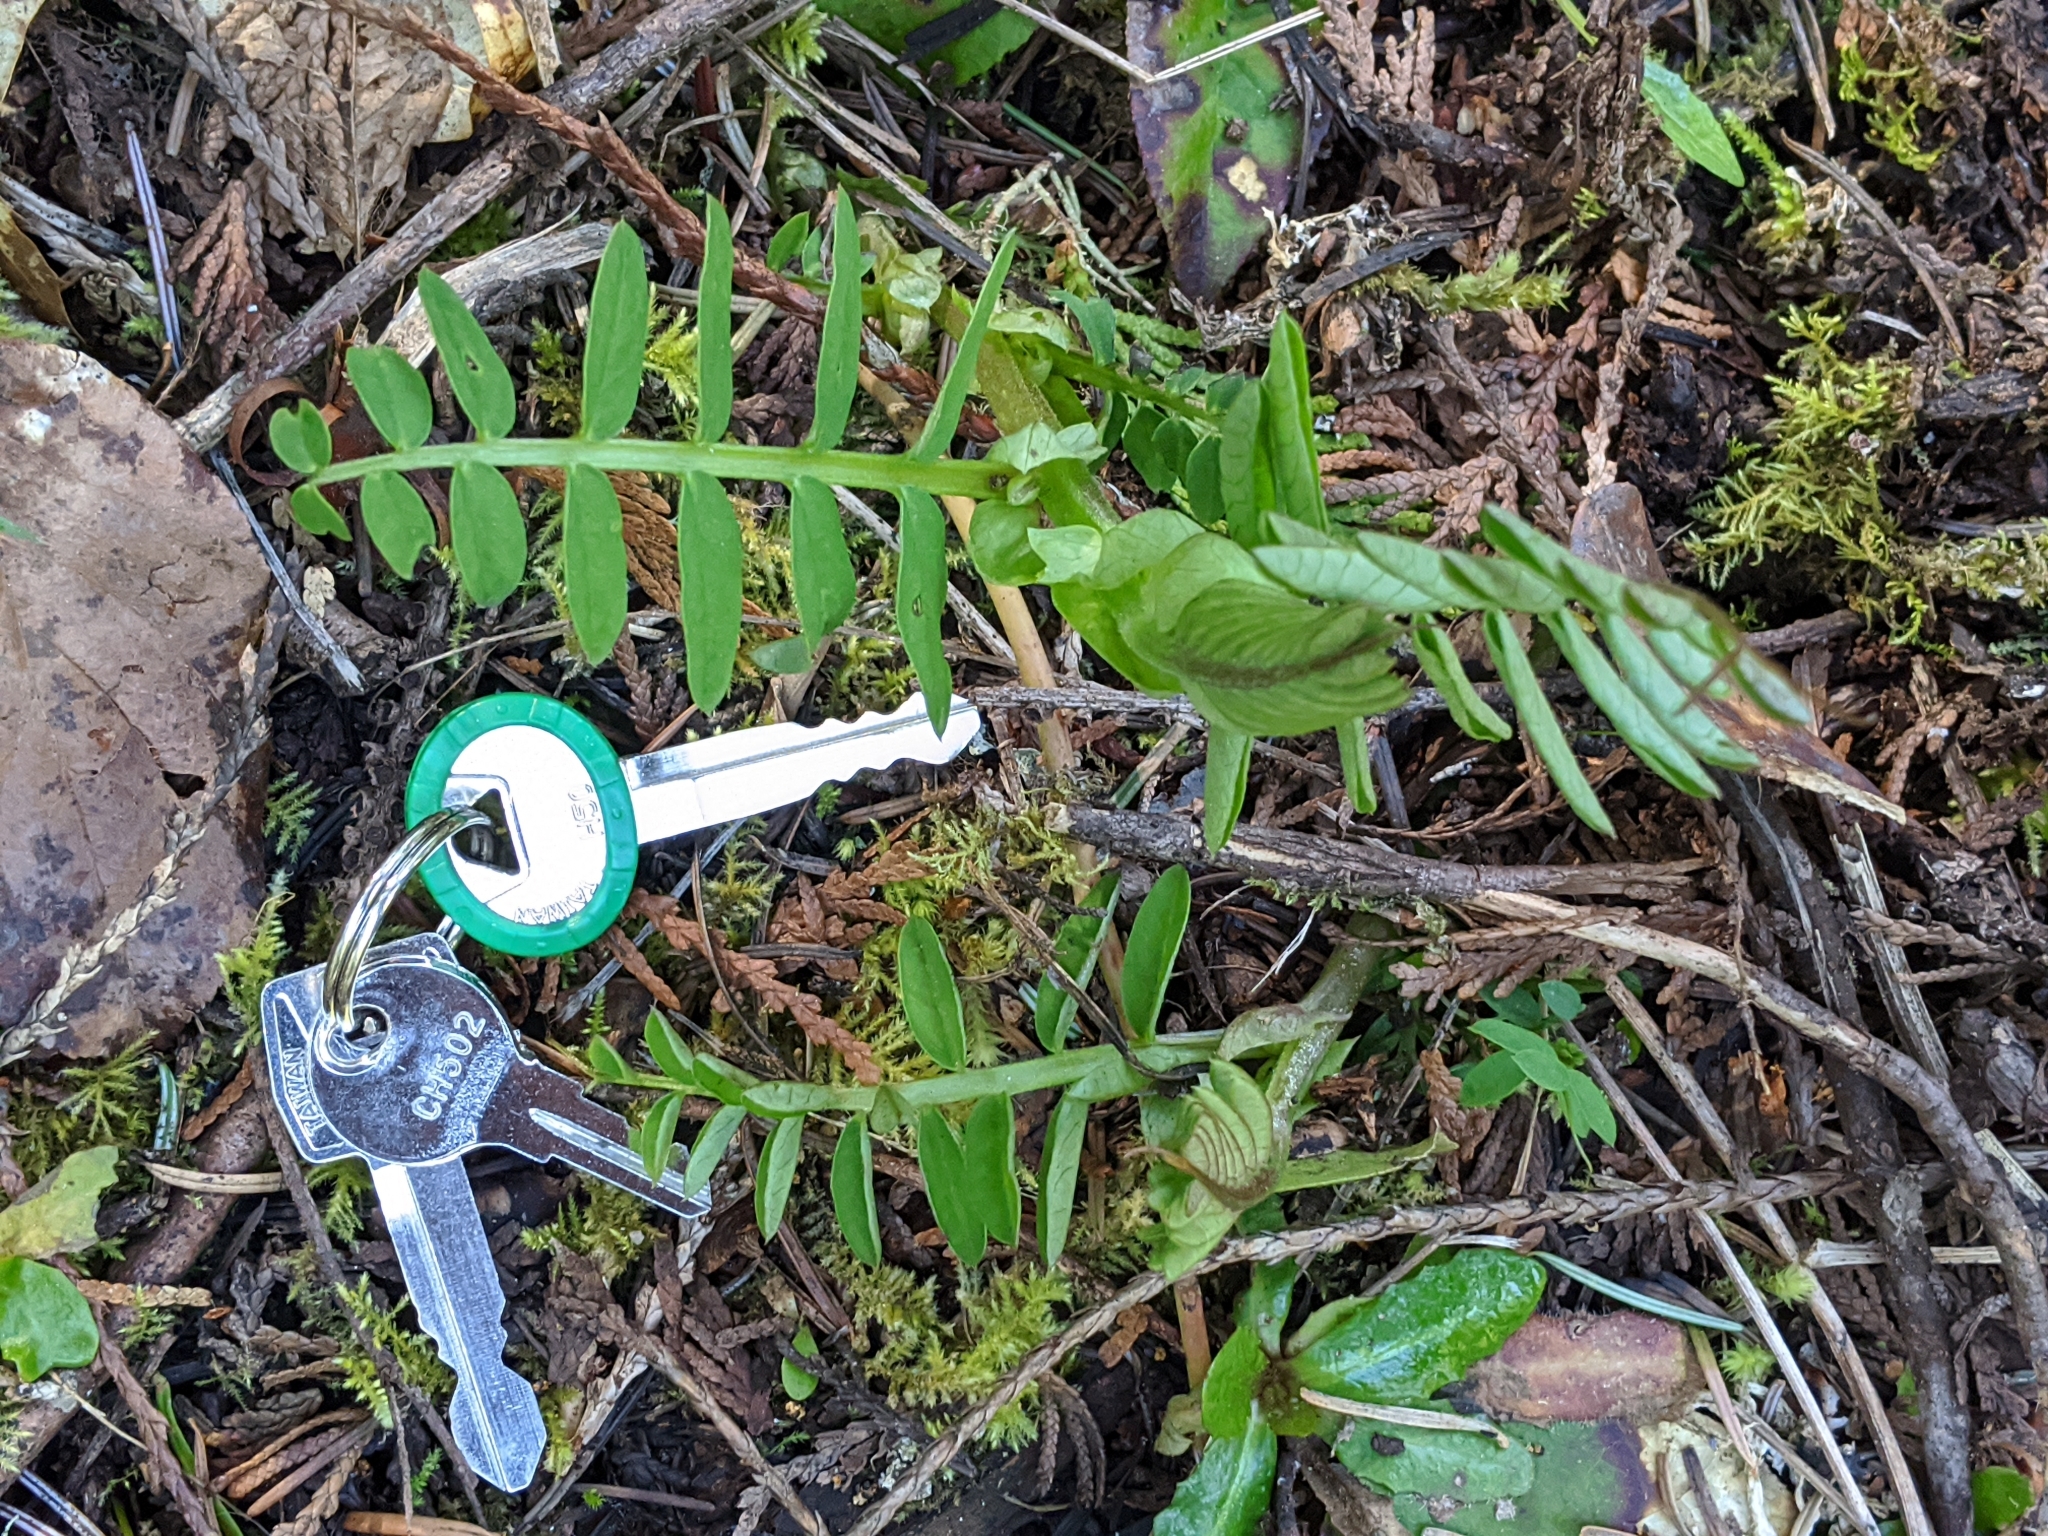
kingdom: Plantae
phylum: Tracheophyta
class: Magnoliopsida
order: Fabales
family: Fabaceae
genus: Vicia
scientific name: Vicia
